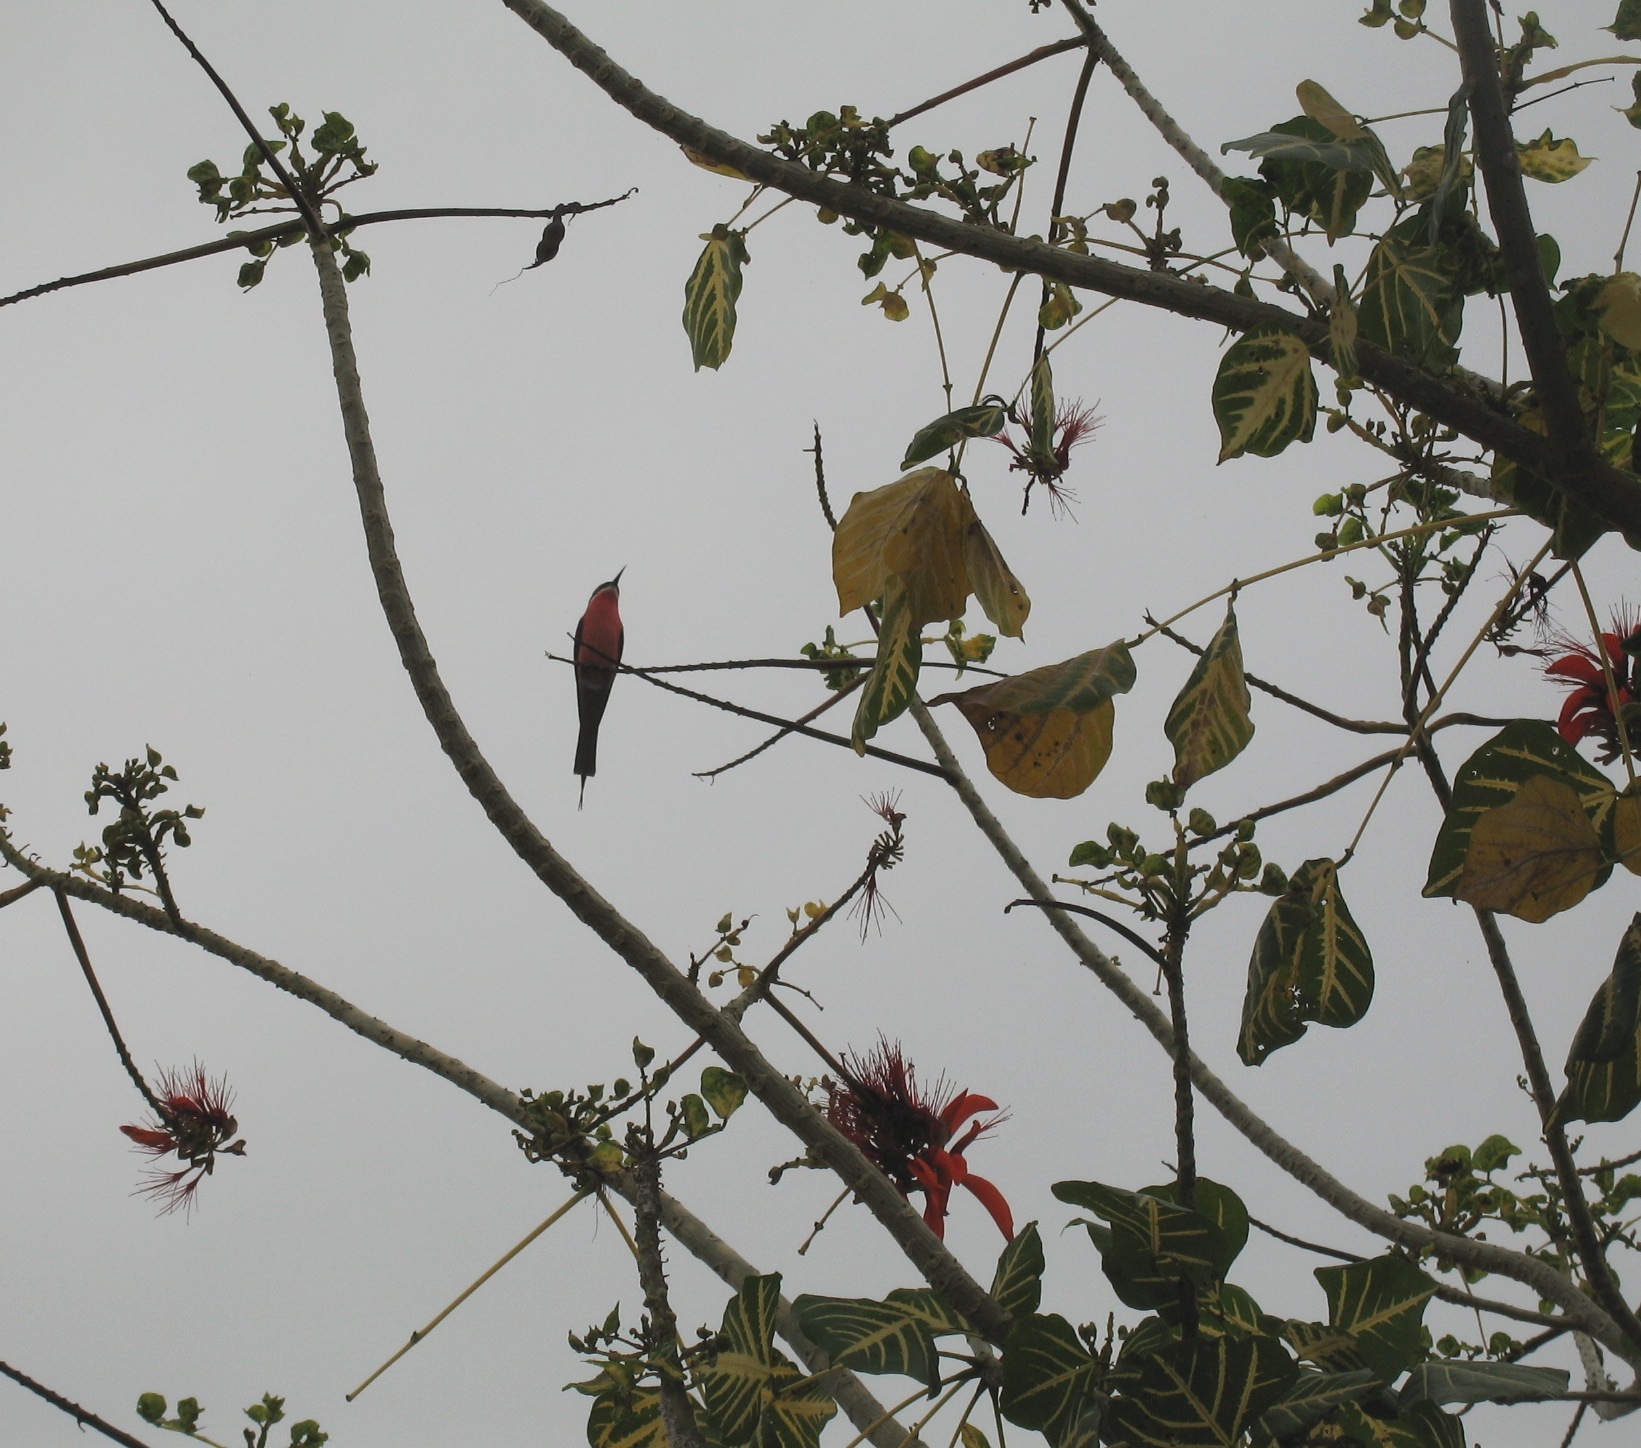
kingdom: Animalia
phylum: Chordata
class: Aves
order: Coraciiformes
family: Meropidae
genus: Merops
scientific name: Merops malimbicus
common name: Rosy bee-eater
